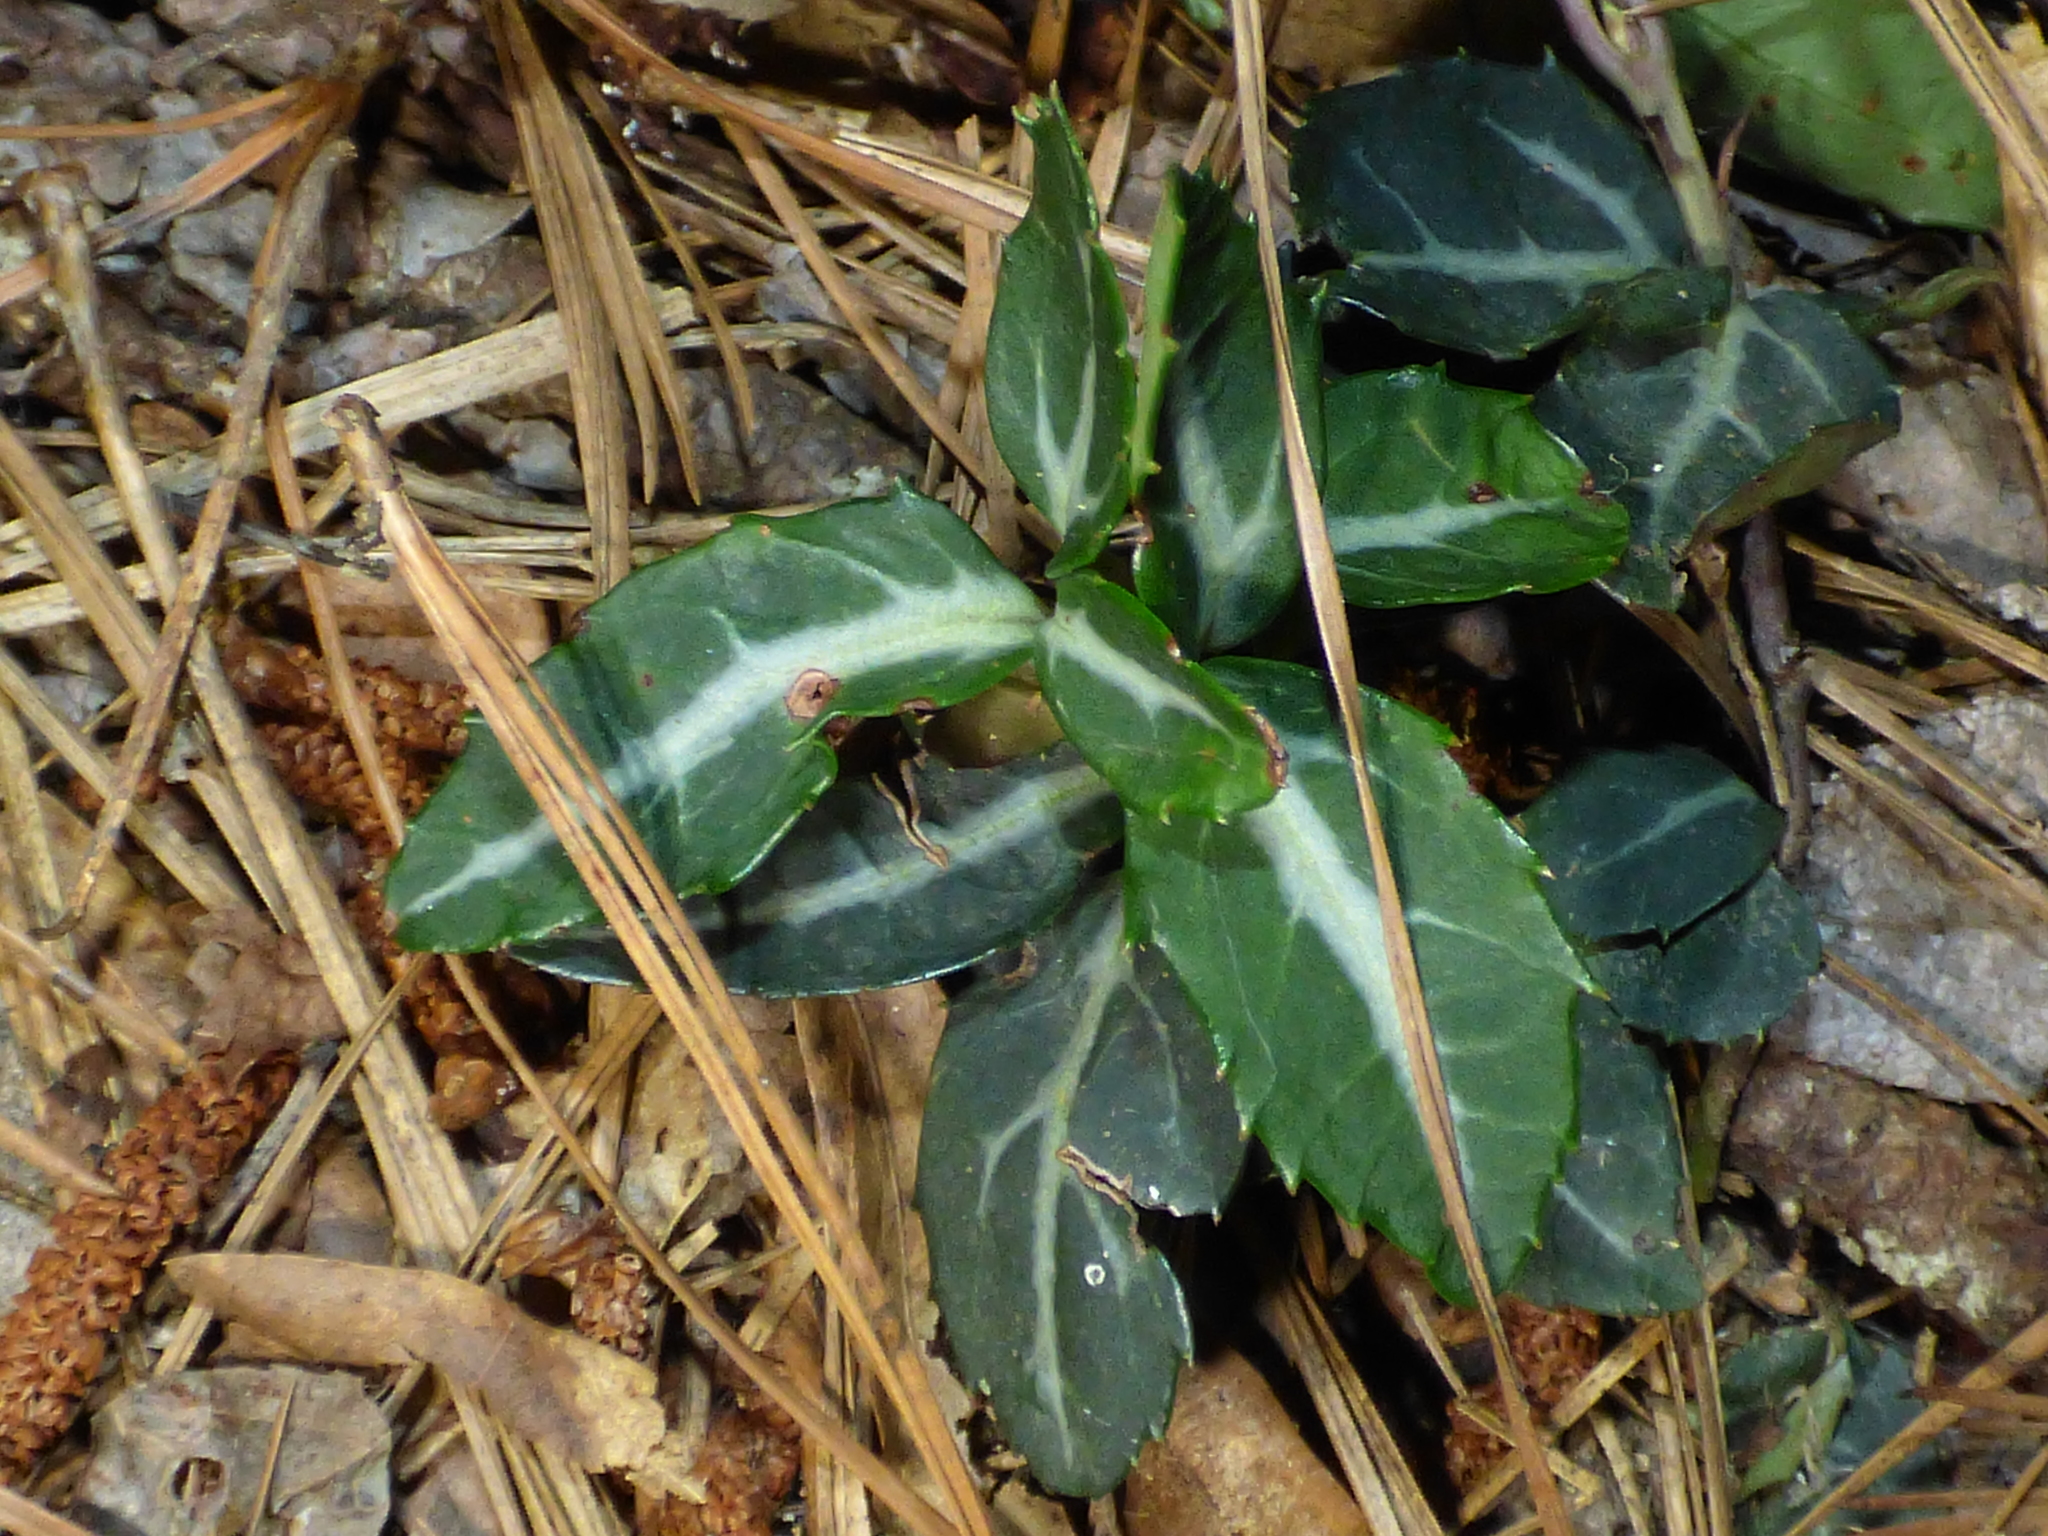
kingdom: Plantae
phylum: Tracheophyta
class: Magnoliopsida
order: Ericales
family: Ericaceae
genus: Chimaphila
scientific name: Chimaphila maculata
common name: Spotted pipsissewa
